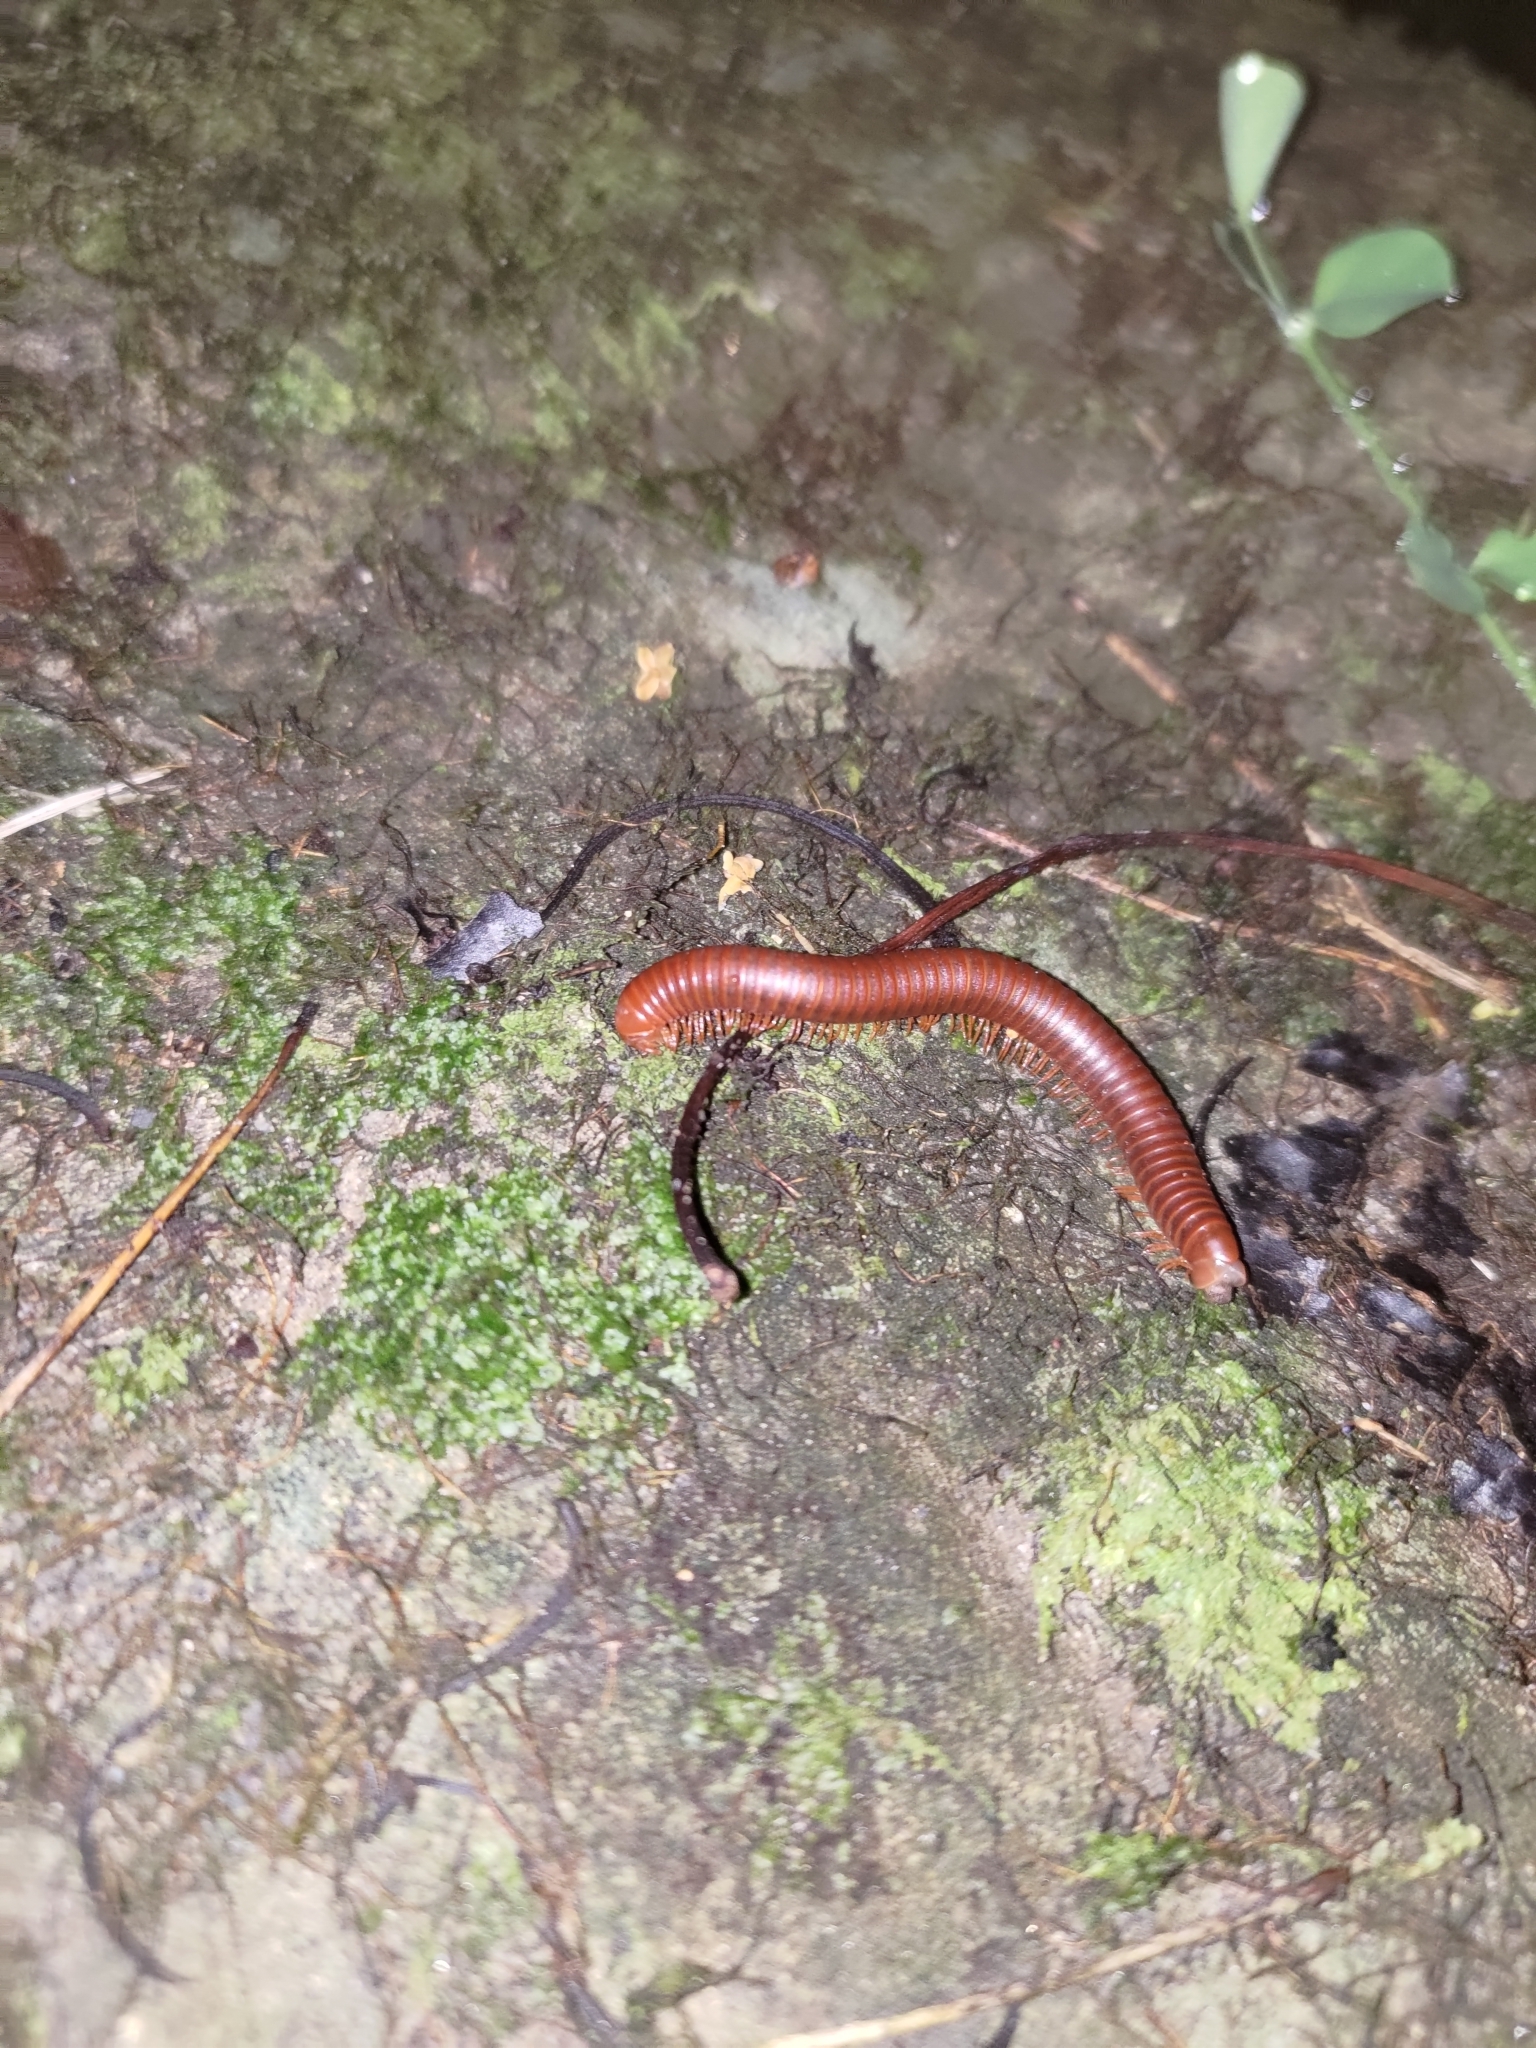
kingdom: Animalia
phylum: Arthropoda
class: Diplopoda
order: Spirobolida
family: Pachybolidae
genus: Trigoniulus
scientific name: Trigoniulus corallinus
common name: Millipede
